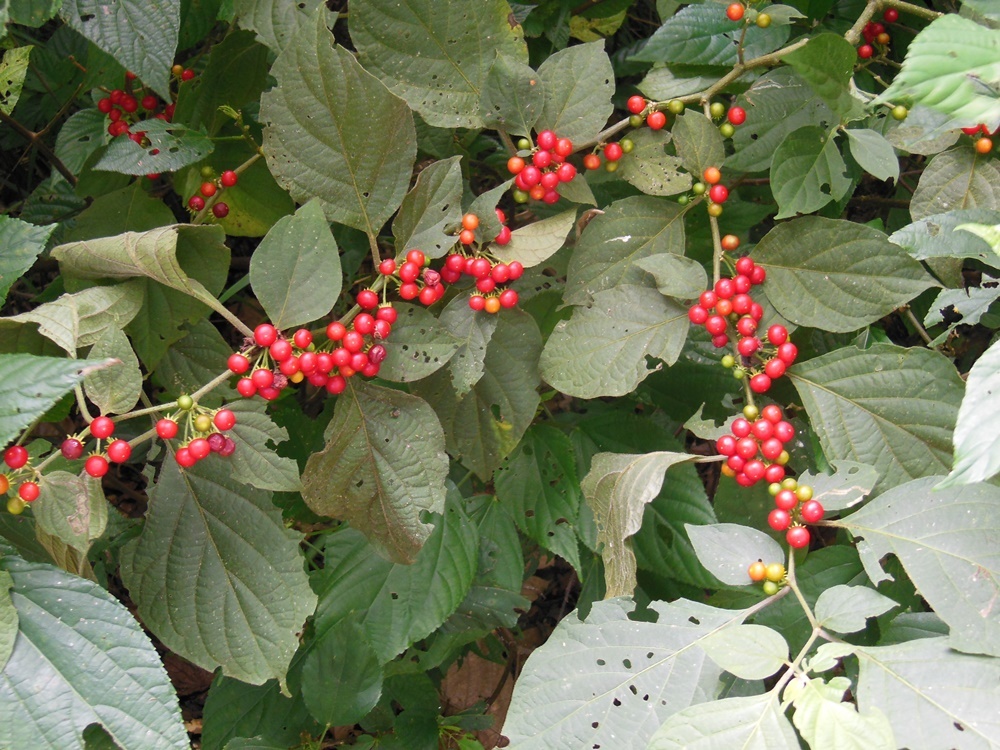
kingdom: Plantae
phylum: Tracheophyta
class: Magnoliopsida
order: Solanales
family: Solanaceae
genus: Lycianthes
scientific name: Lycianthes scandens
